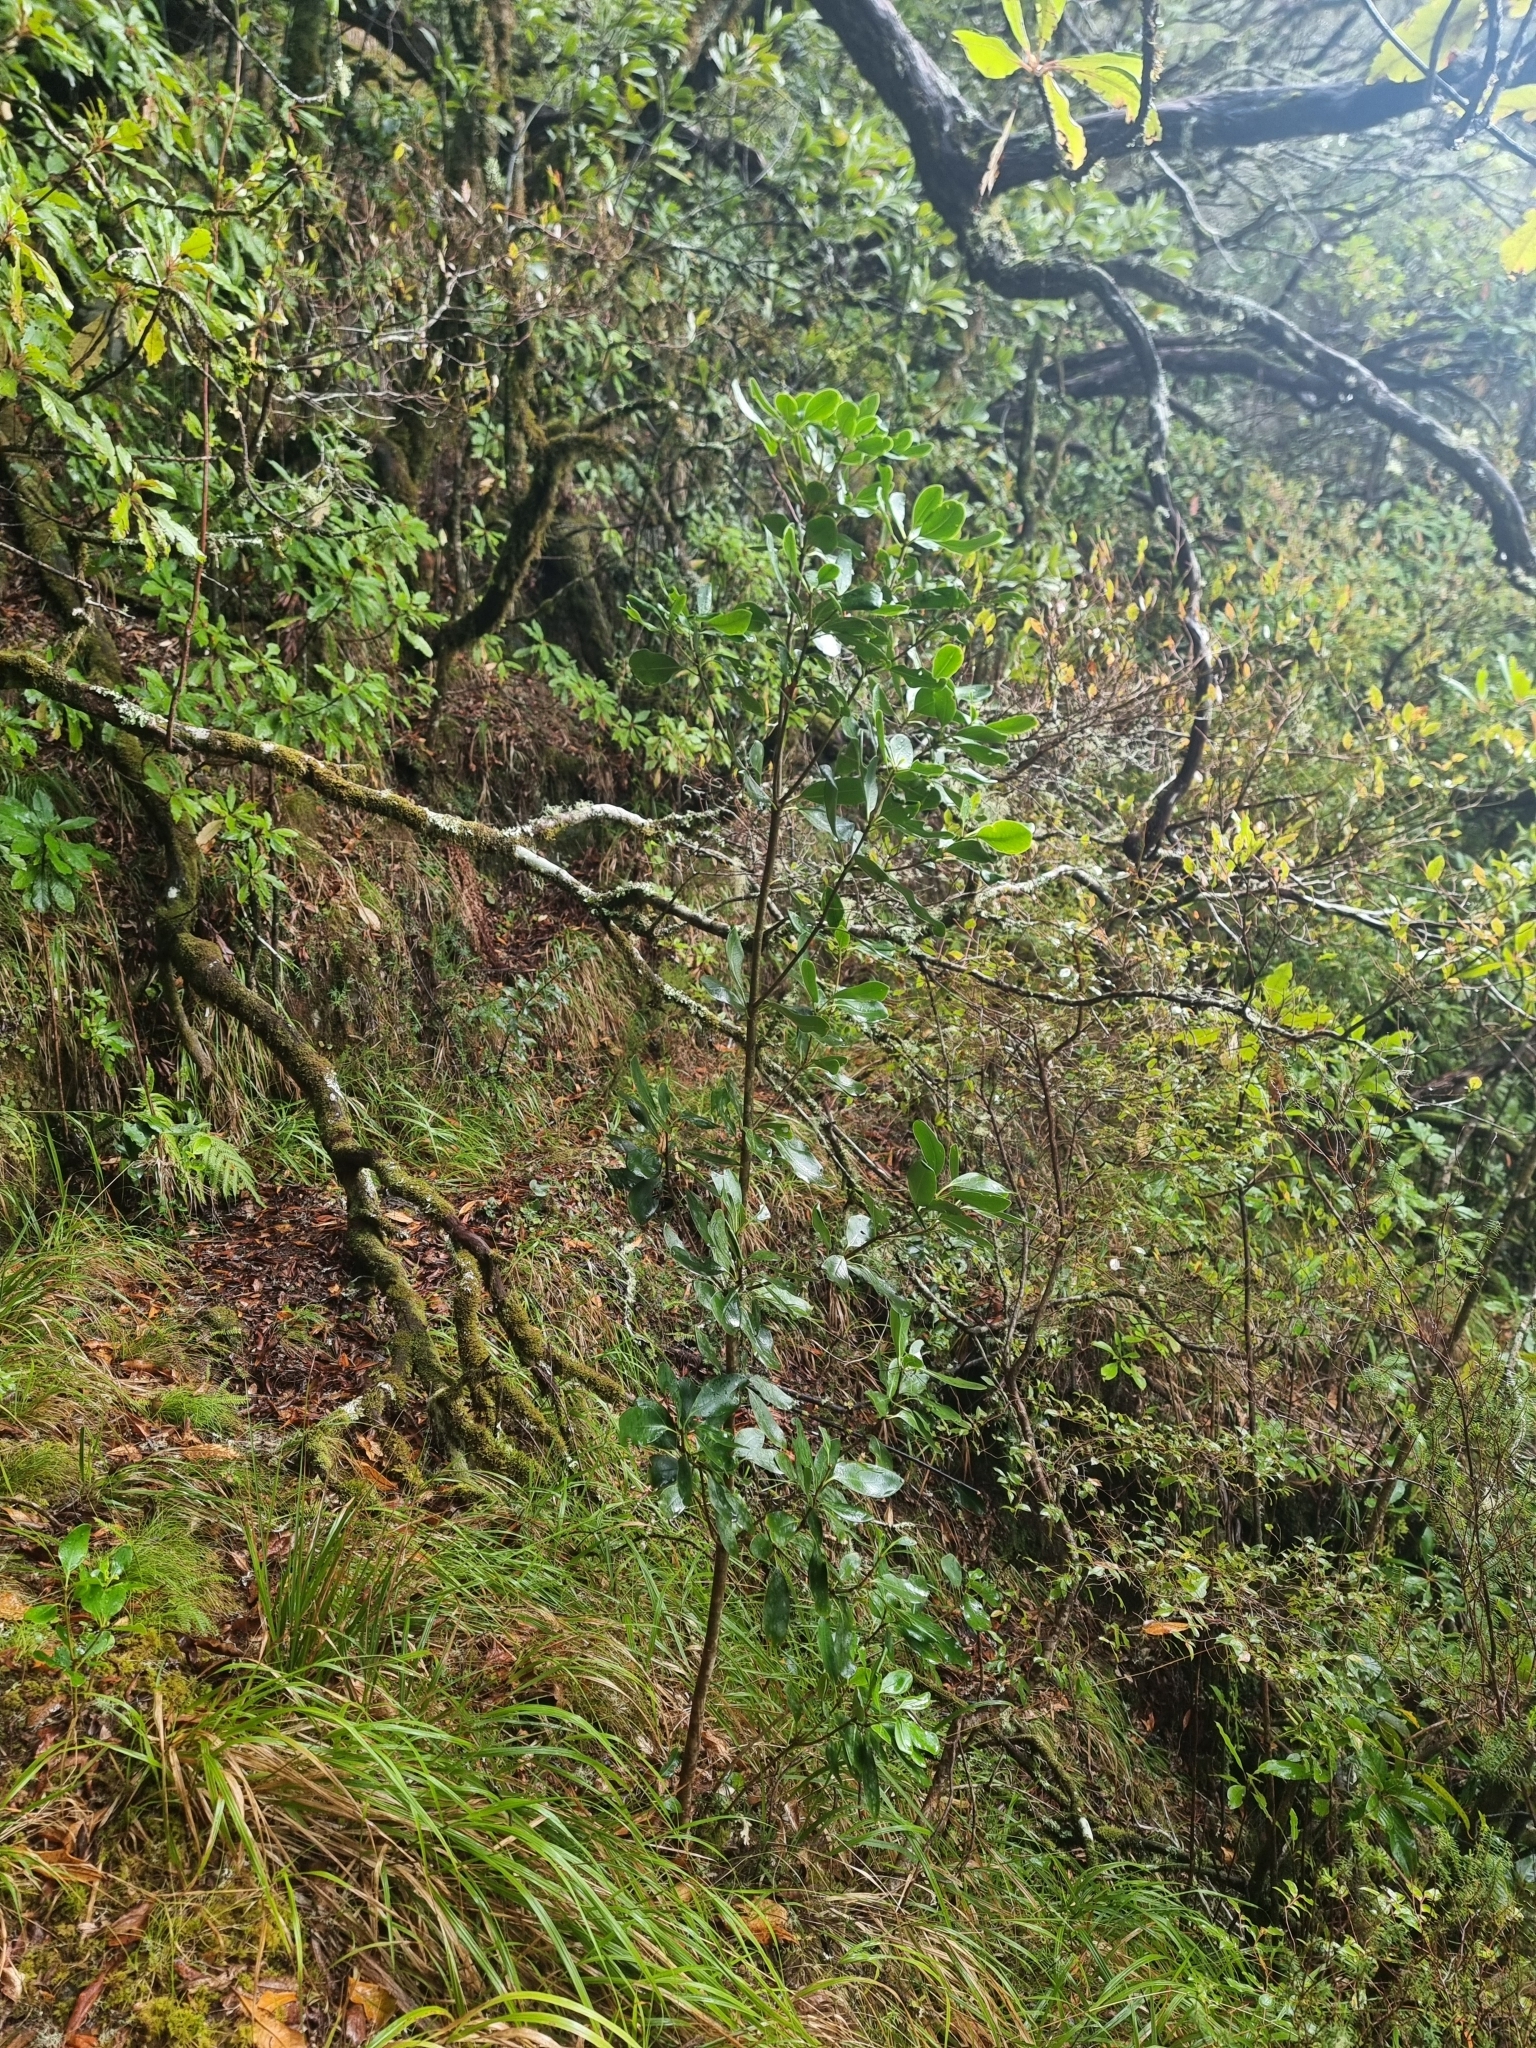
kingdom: Plantae
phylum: Tracheophyta
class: Magnoliopsida
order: Apiales
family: Pittosporaceae
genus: Pittosporum
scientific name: Pittosporum coriaceum
